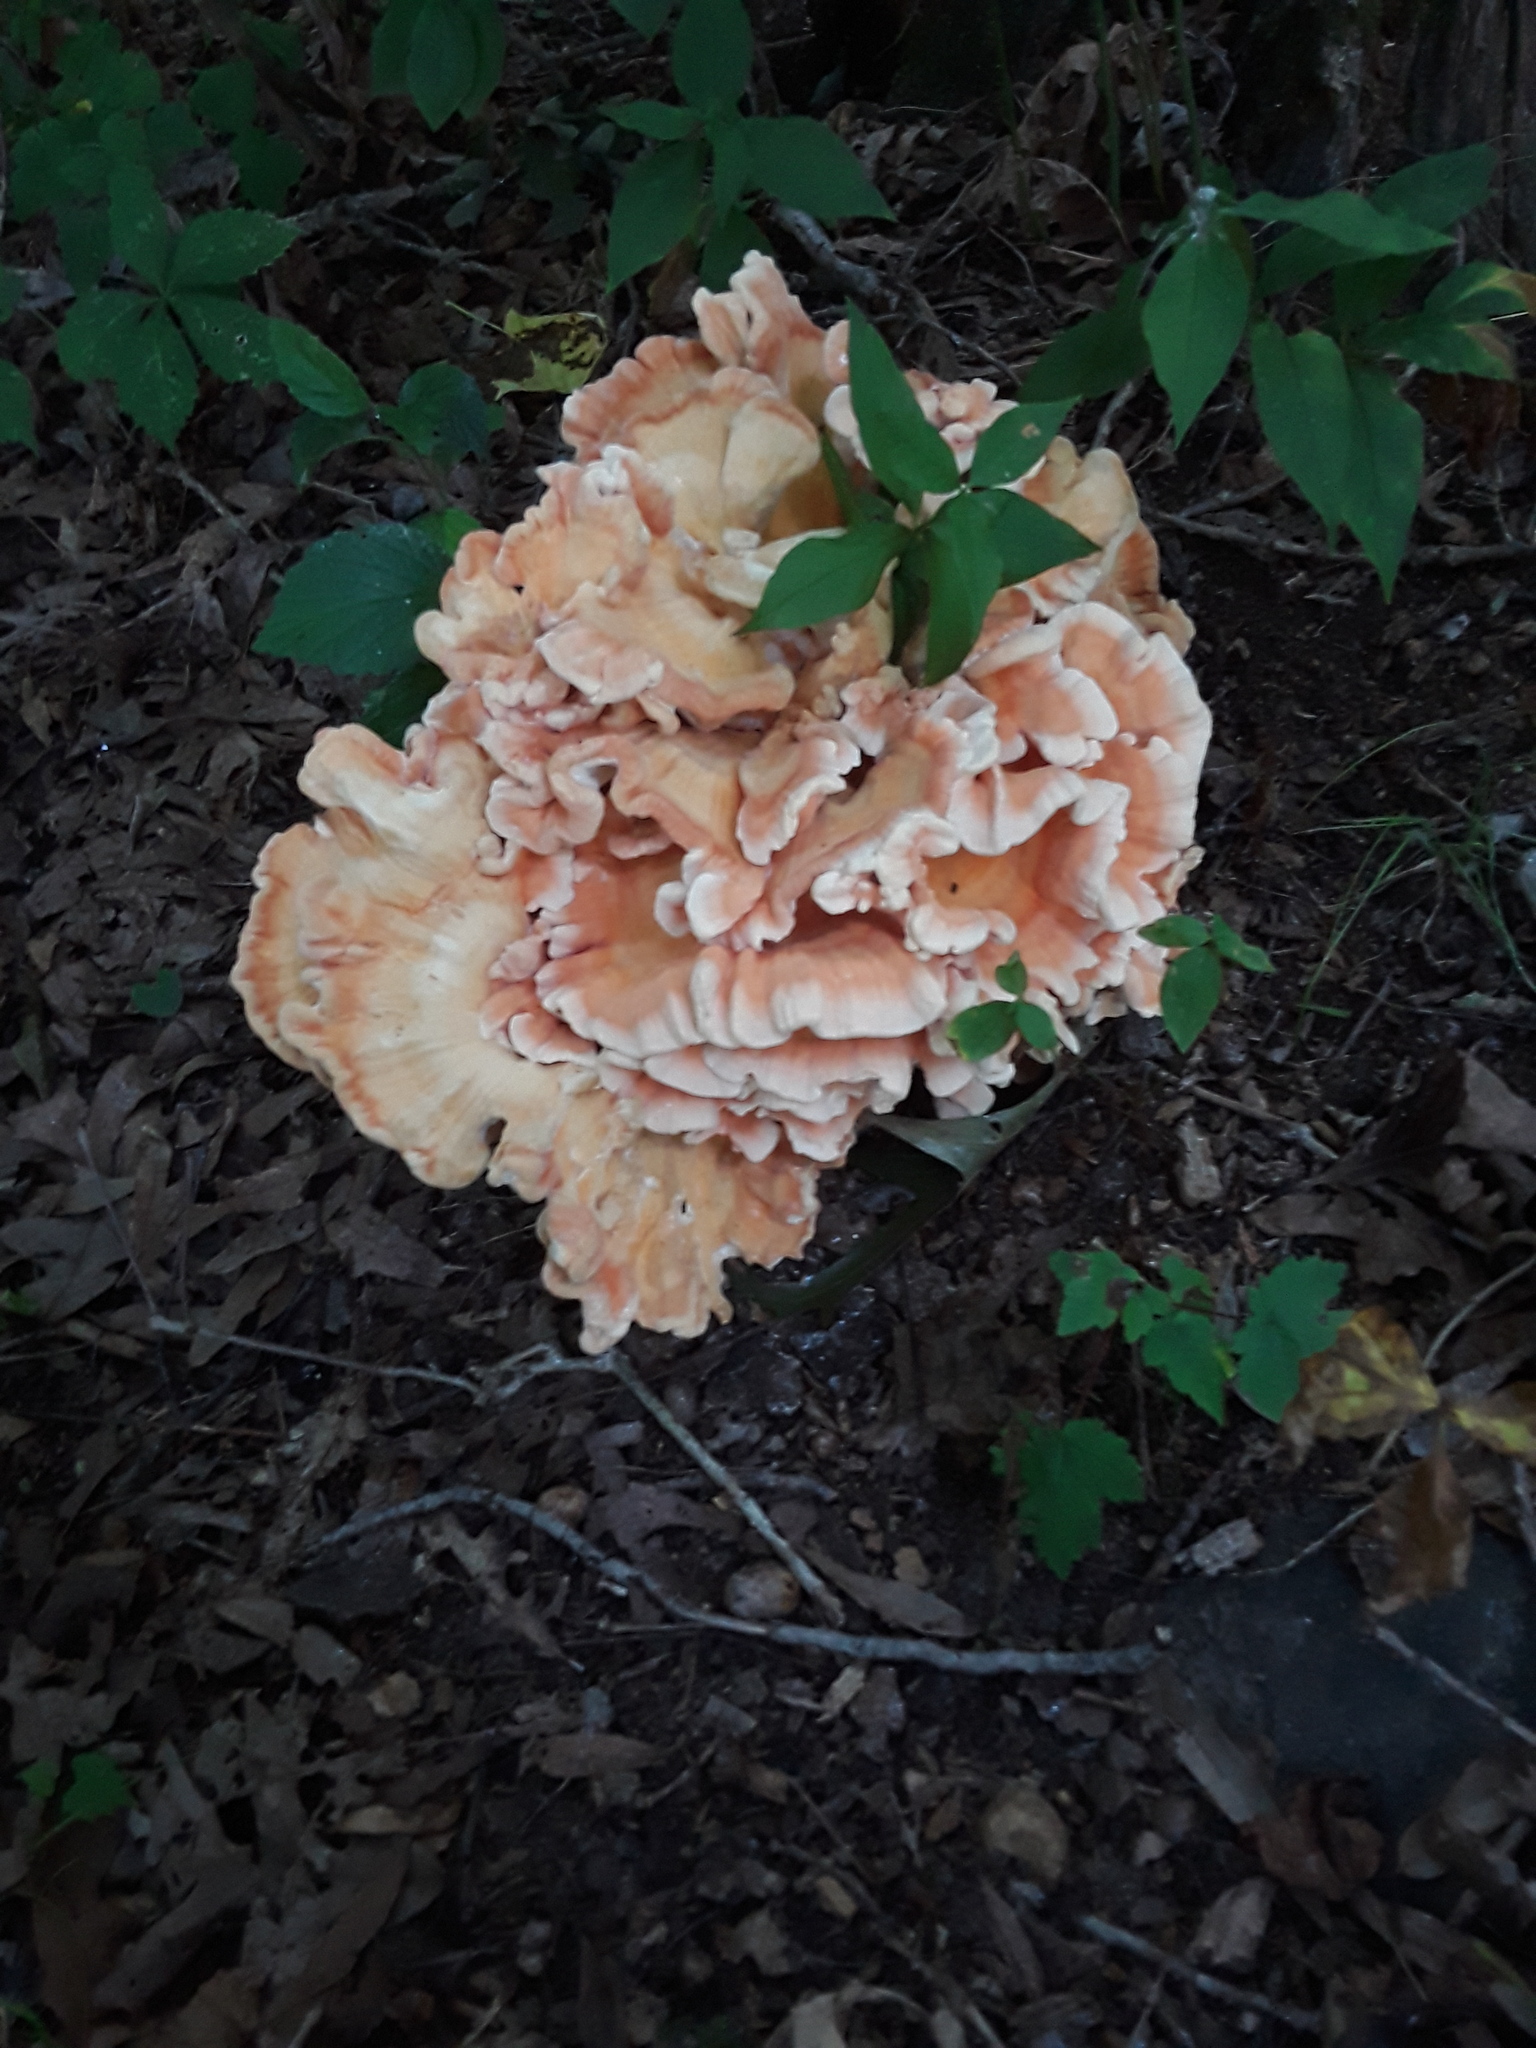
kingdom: Fungi
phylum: Basidiomycota
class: Agaricomycetes
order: Polyporales
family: Laetiporaceae
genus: Laetiporus
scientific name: Laetiporus sulphureus
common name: Chicken of the woods
